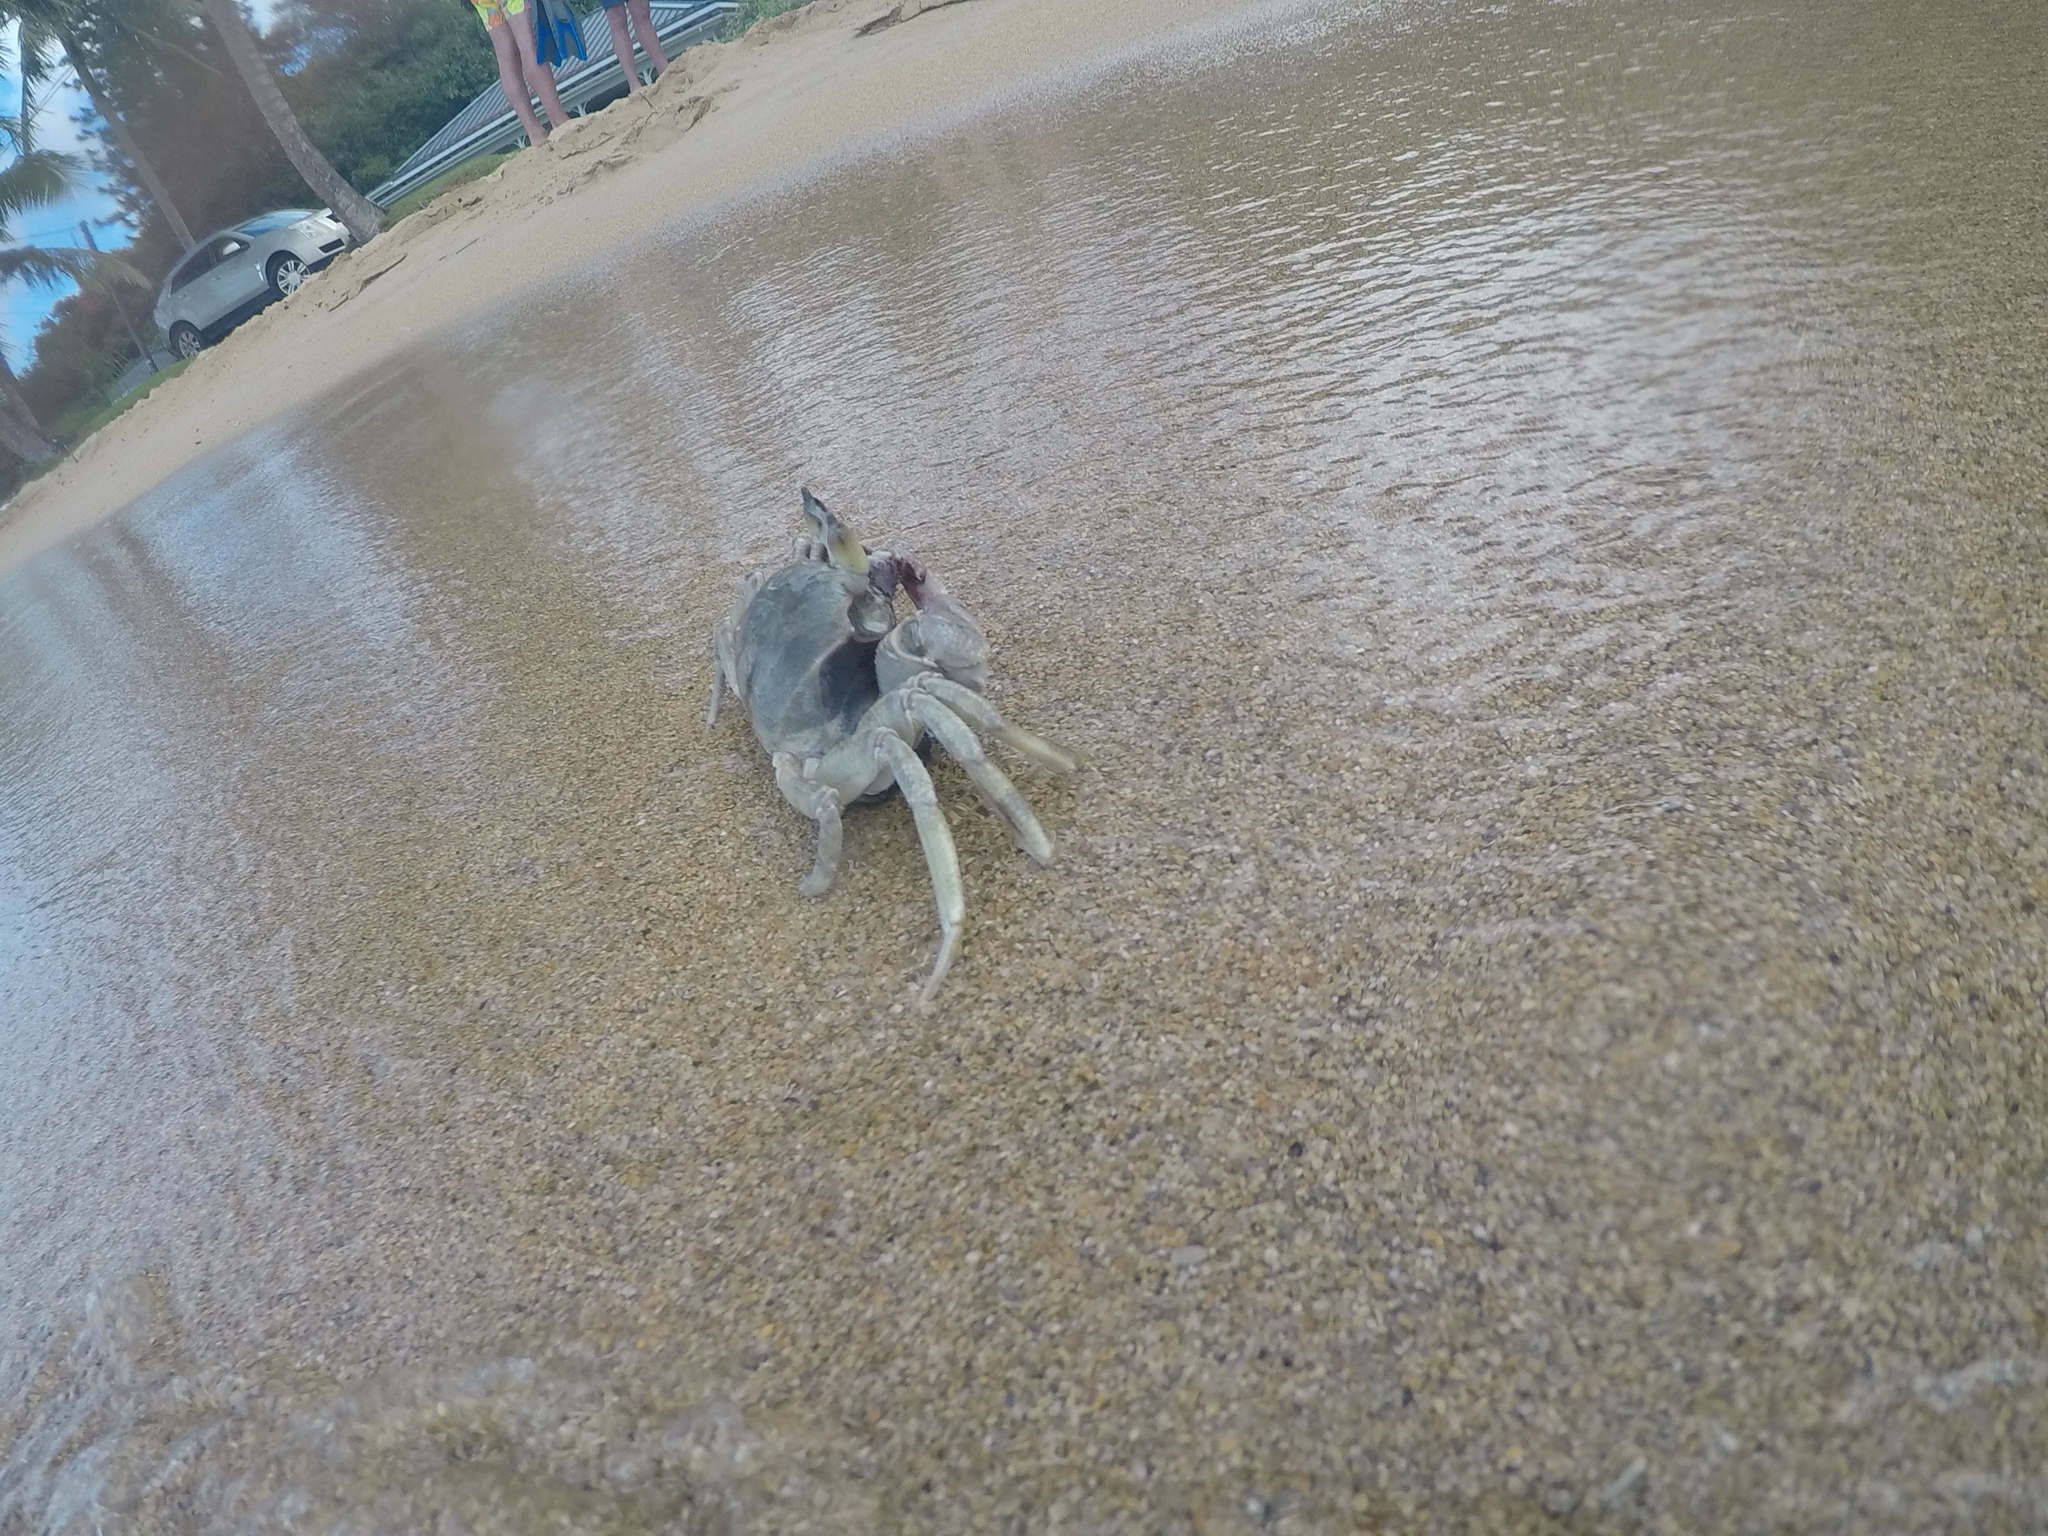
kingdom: Animalia
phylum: Arthropoda
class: Malacostraca
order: Decapoda
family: Ocypodidae
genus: Ocypode
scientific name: Ocypode ceratophthalmus
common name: Indo-pacific ghost crab
